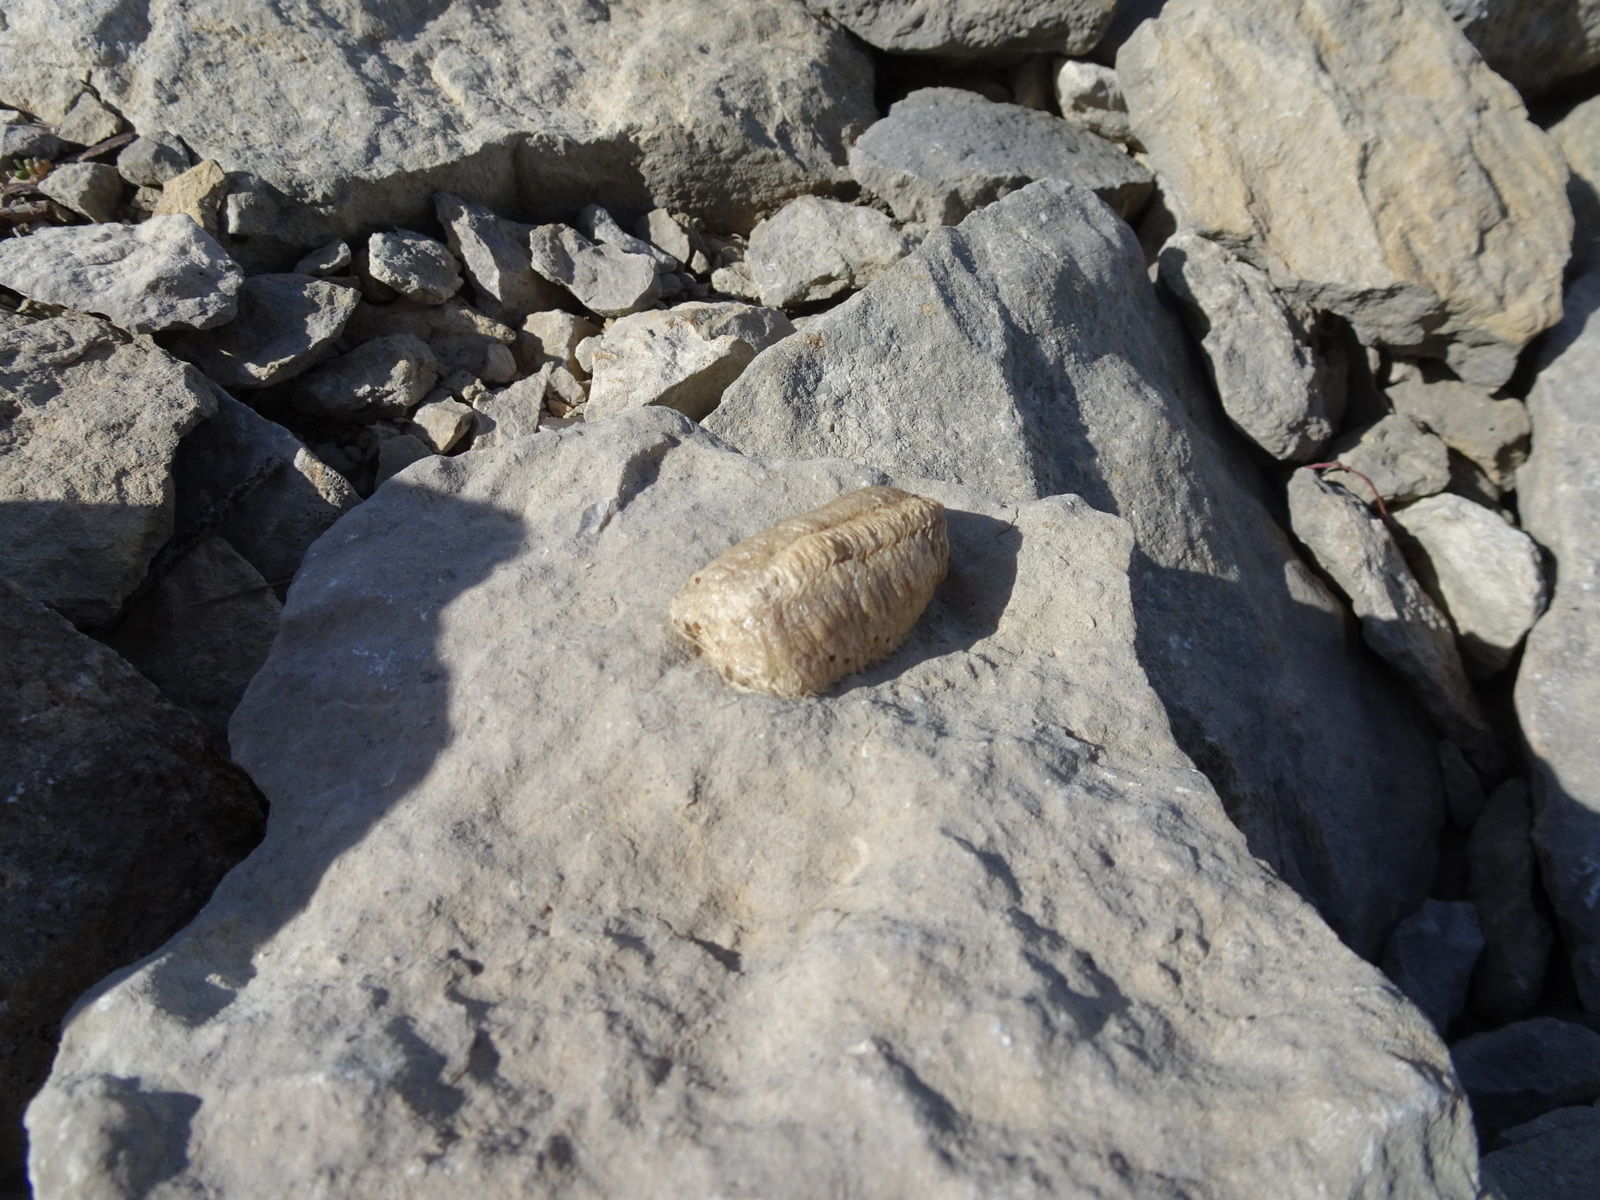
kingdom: Animalia
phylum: Arthropoda
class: Insecta
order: Mantodea
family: Mantidae
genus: Mantis
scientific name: Mantis religiosa
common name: Praying mantis
